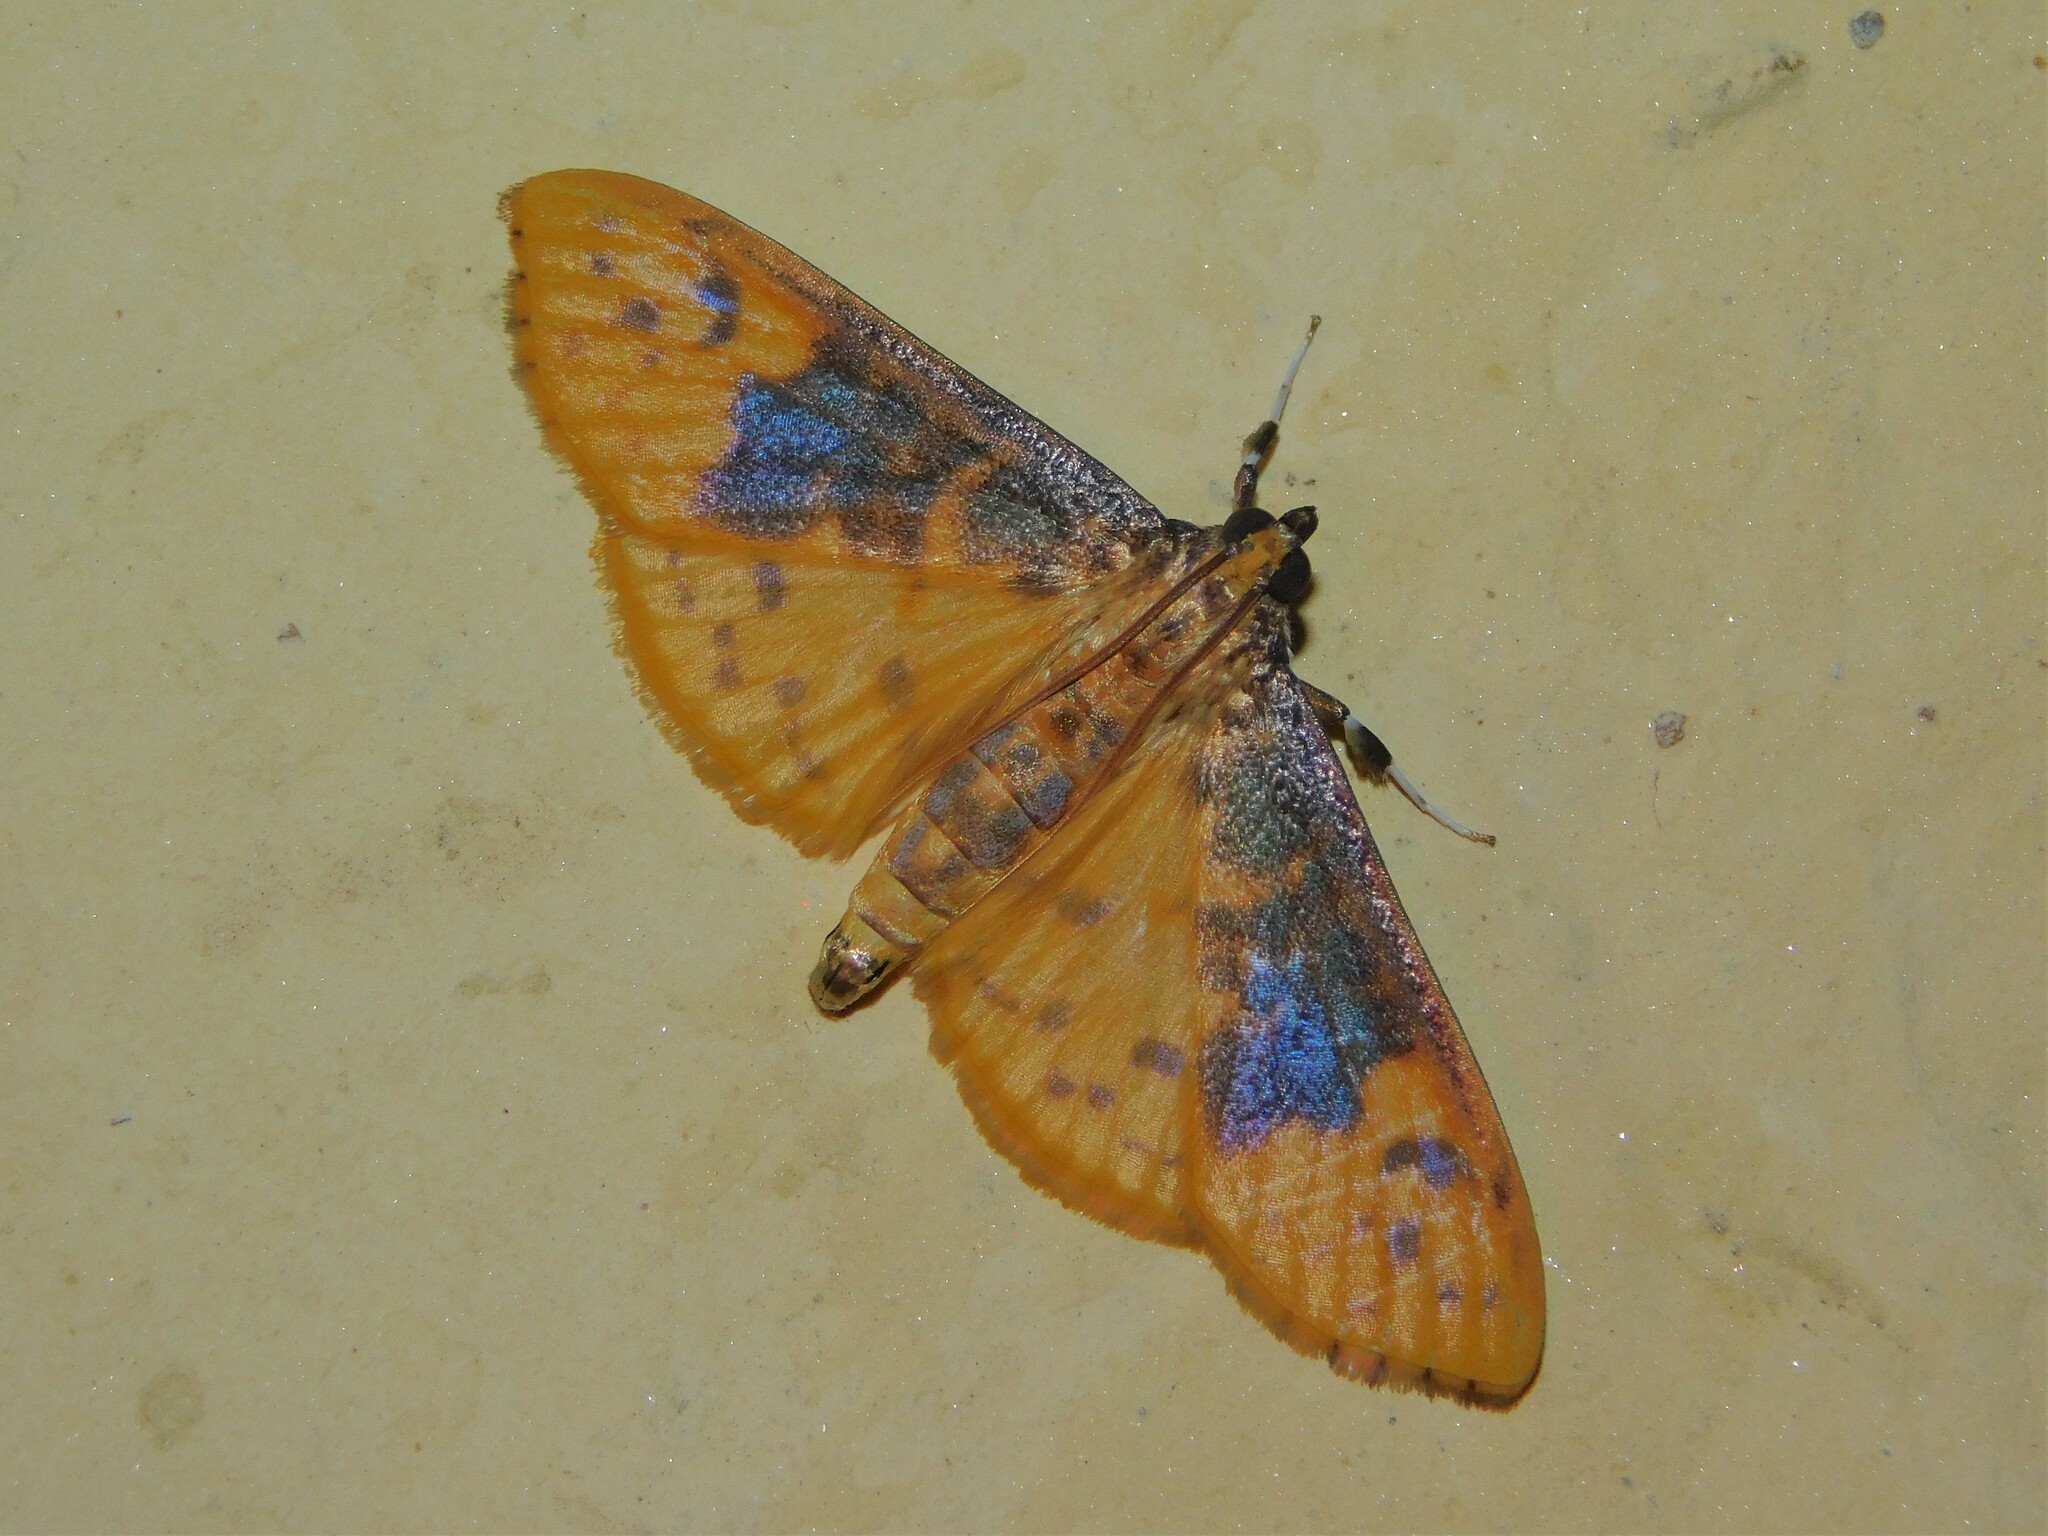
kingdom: Animalia
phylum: Arthropoda
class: Insecta
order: Lepidoptera
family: Crambidae
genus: Ghesquierellana
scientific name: Ghesquierellana hirtusalis
